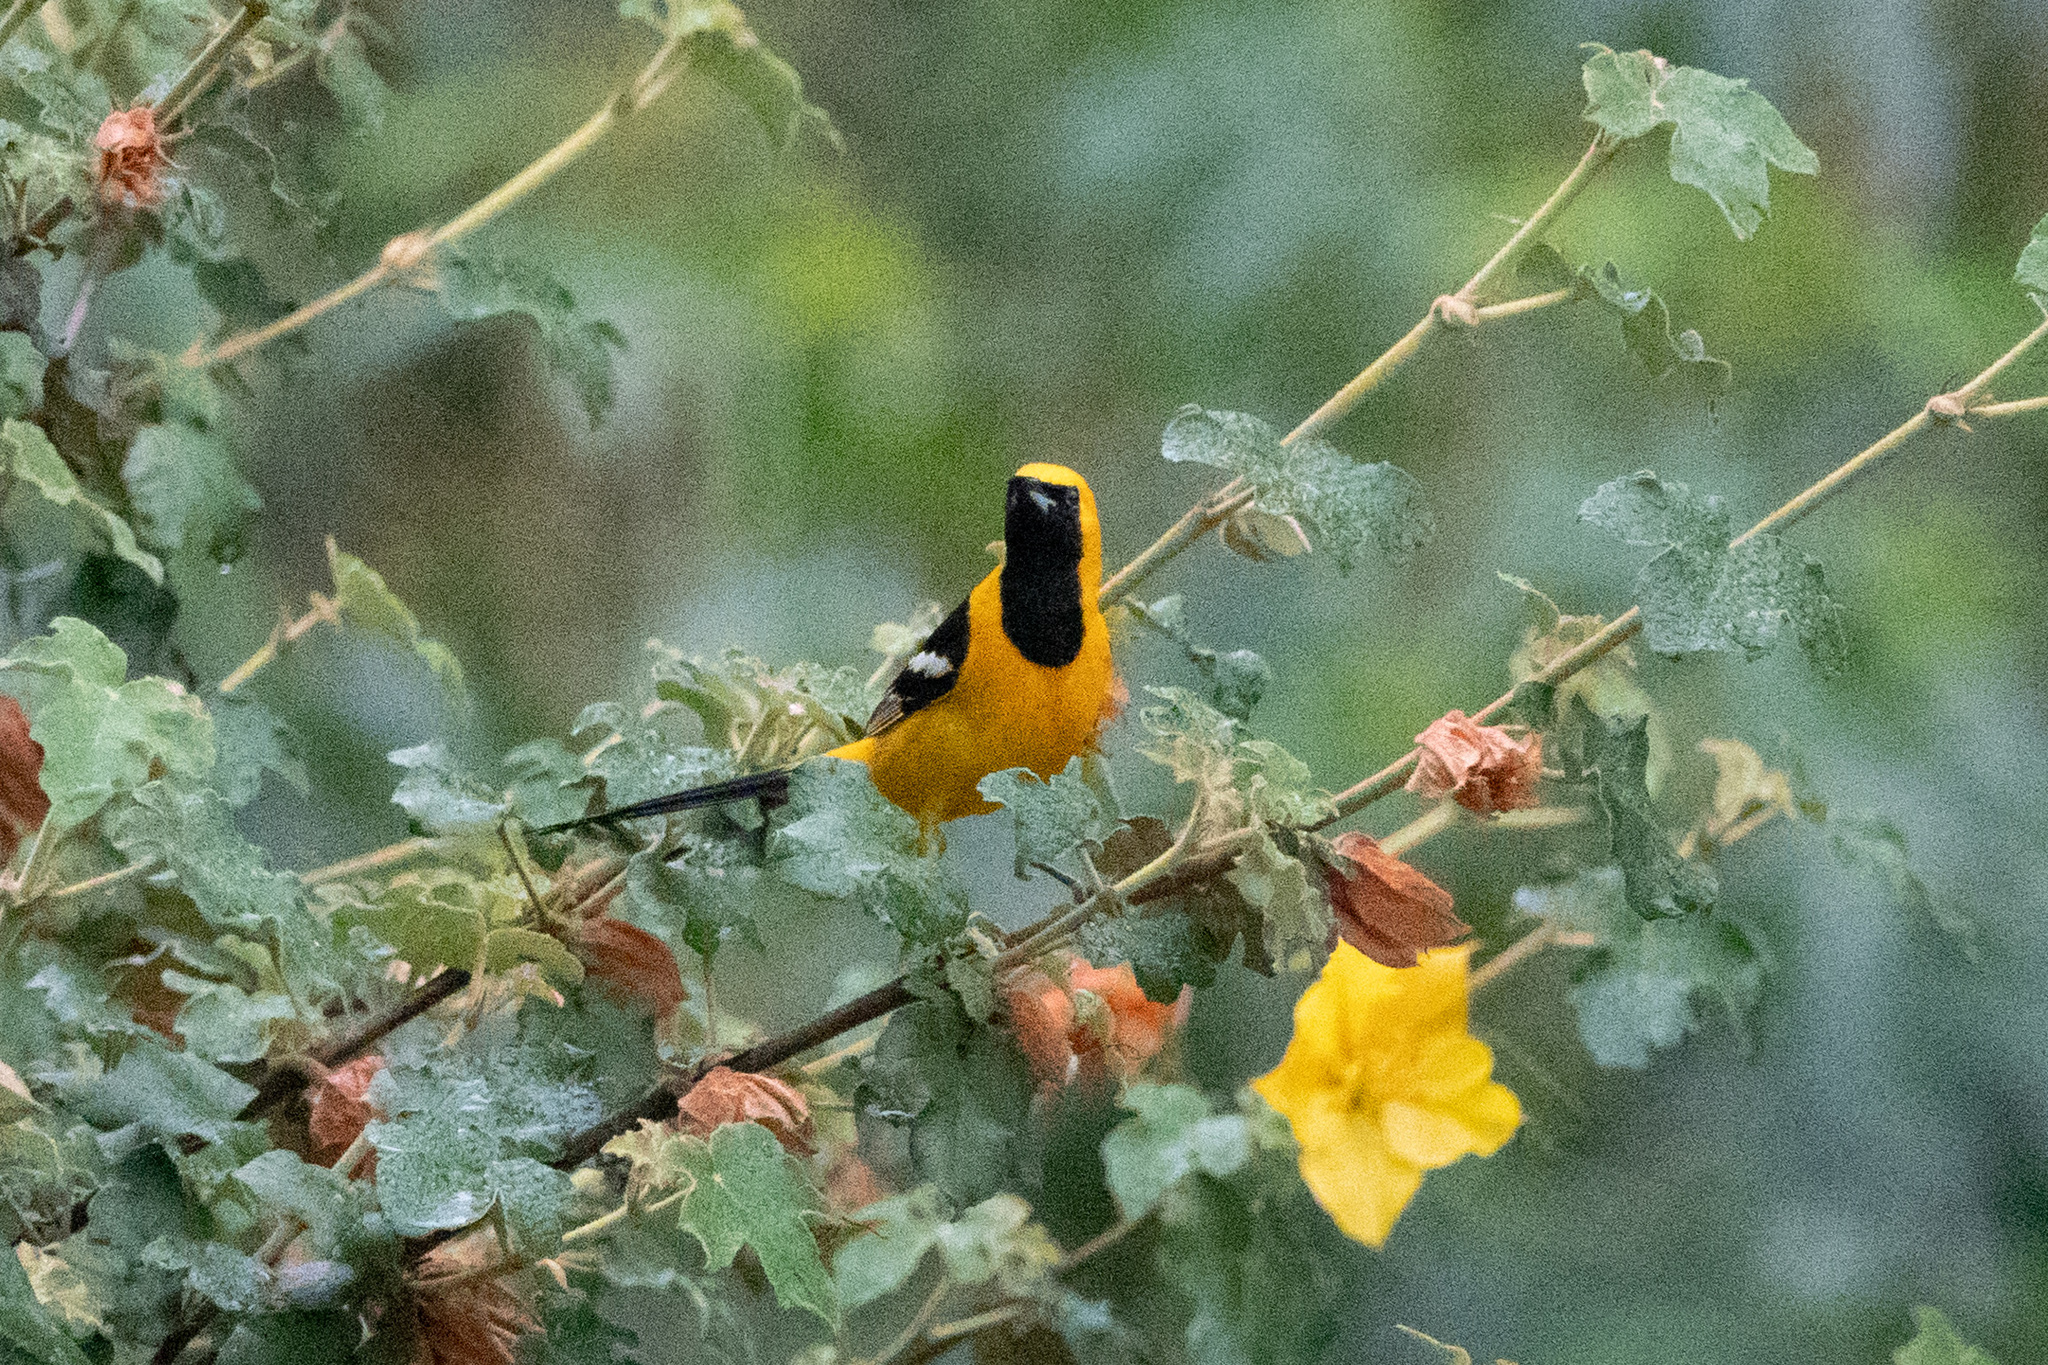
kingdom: Animalia
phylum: Chordata
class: Aves
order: Passeriformes
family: Icteridae
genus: Icterus
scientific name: Icterus cucullatus
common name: Hooded oriole
